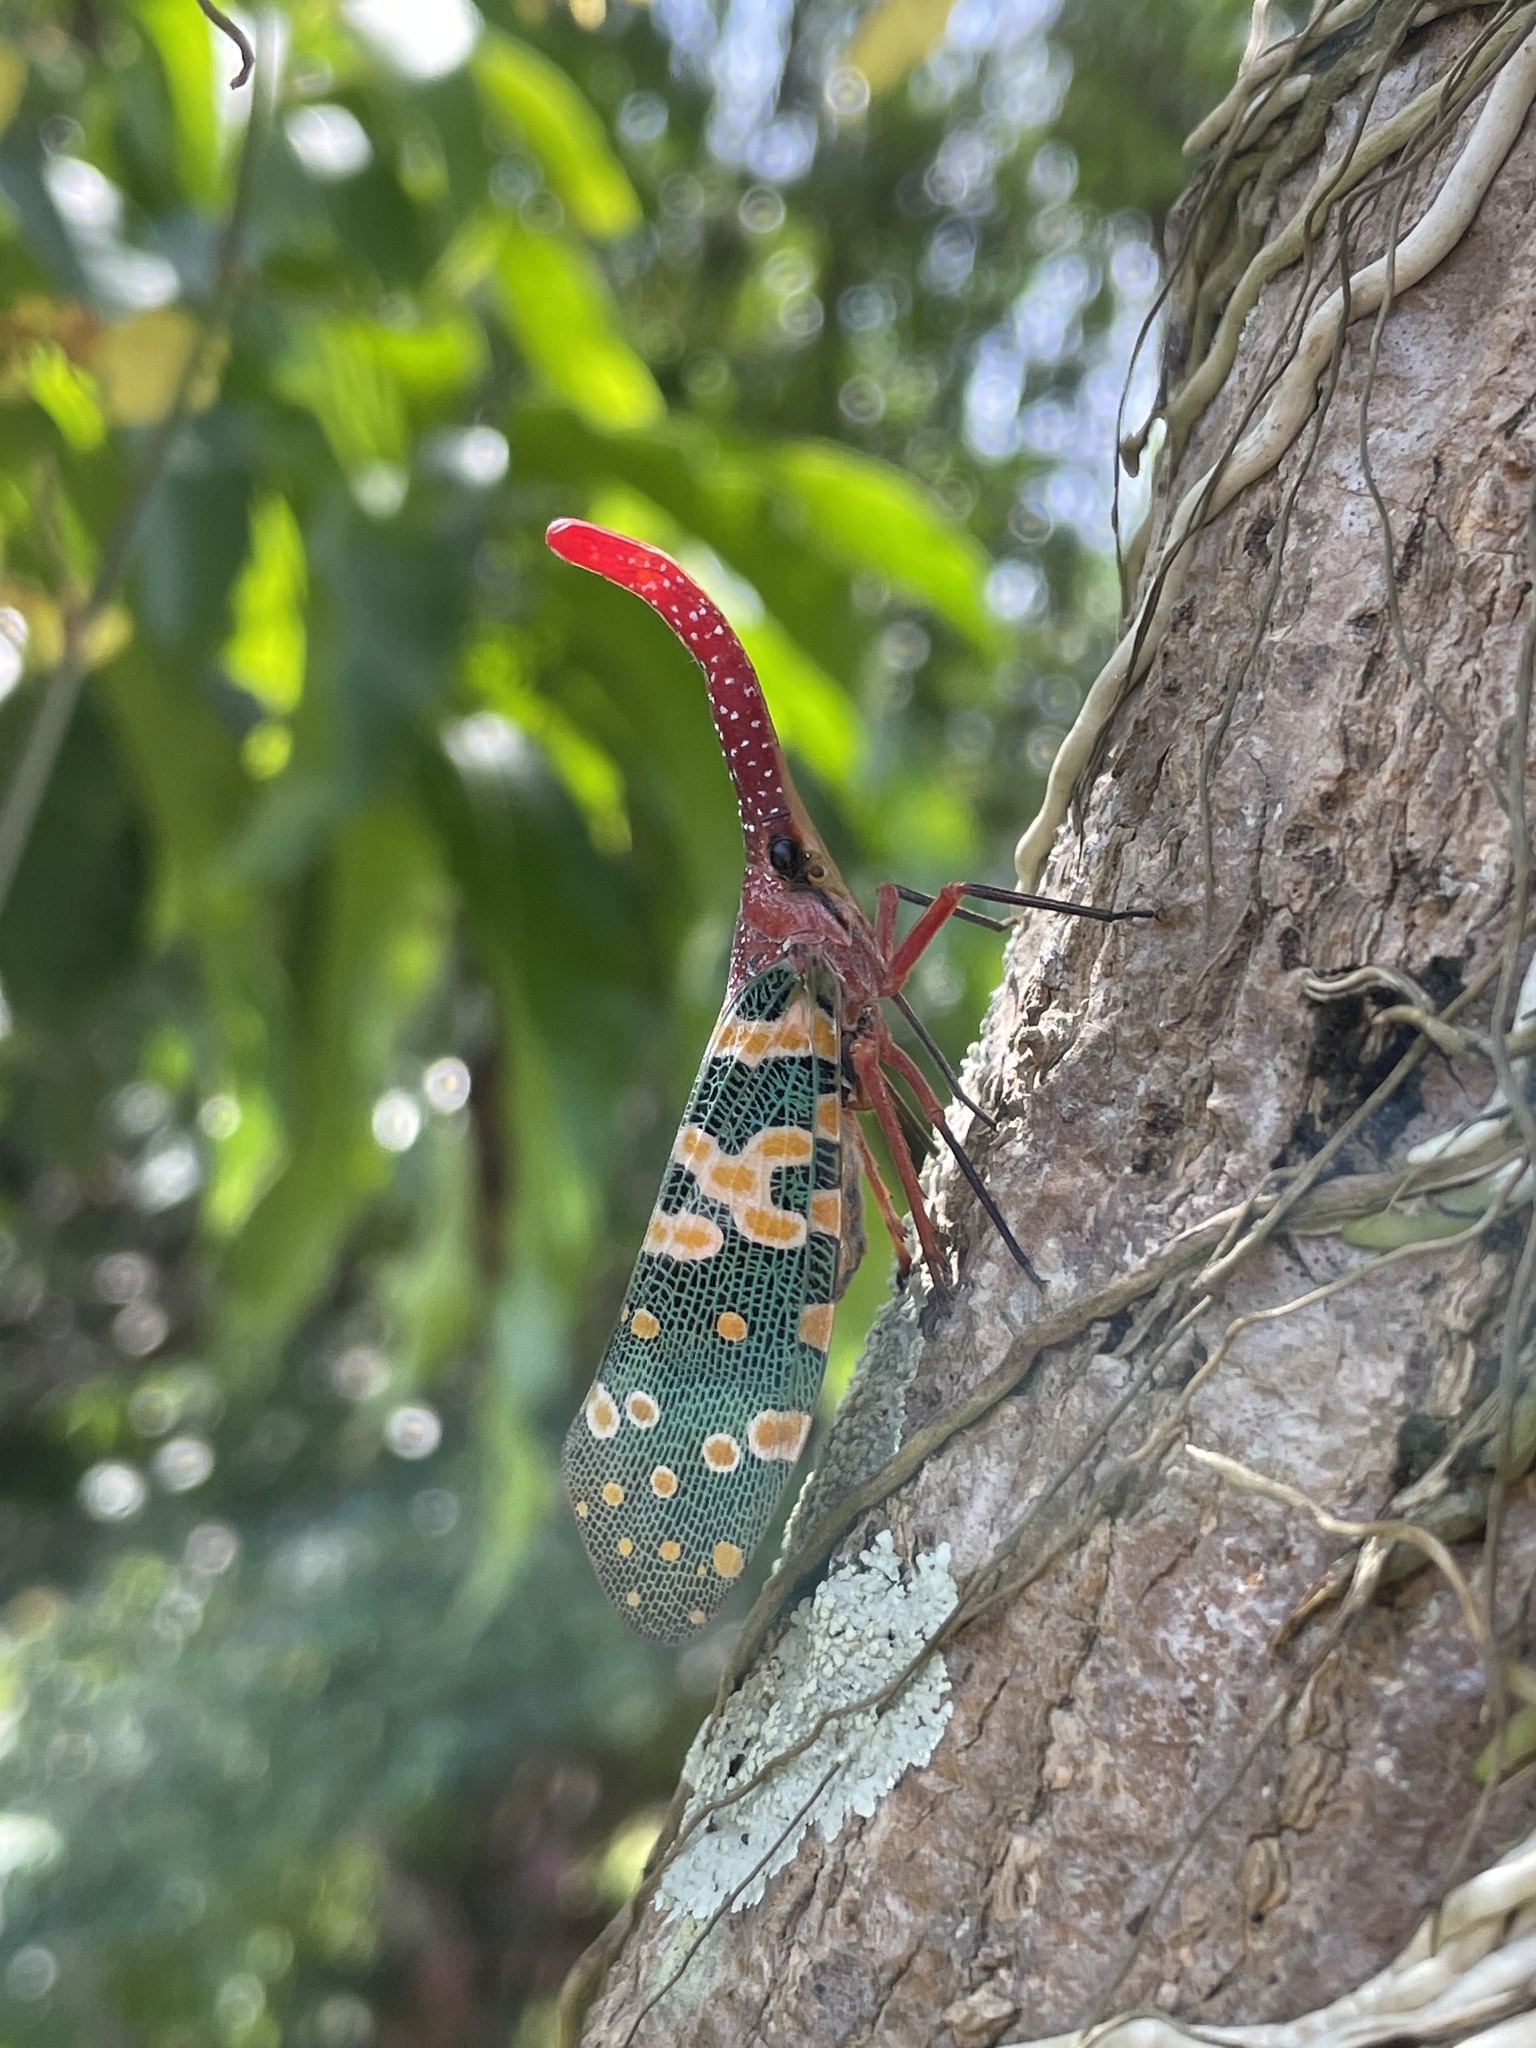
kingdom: Animalia
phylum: Arthropoda
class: Insecta
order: Hemiptera
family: Fulgoridae
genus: Pyrops
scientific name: Pyrops candelaria
